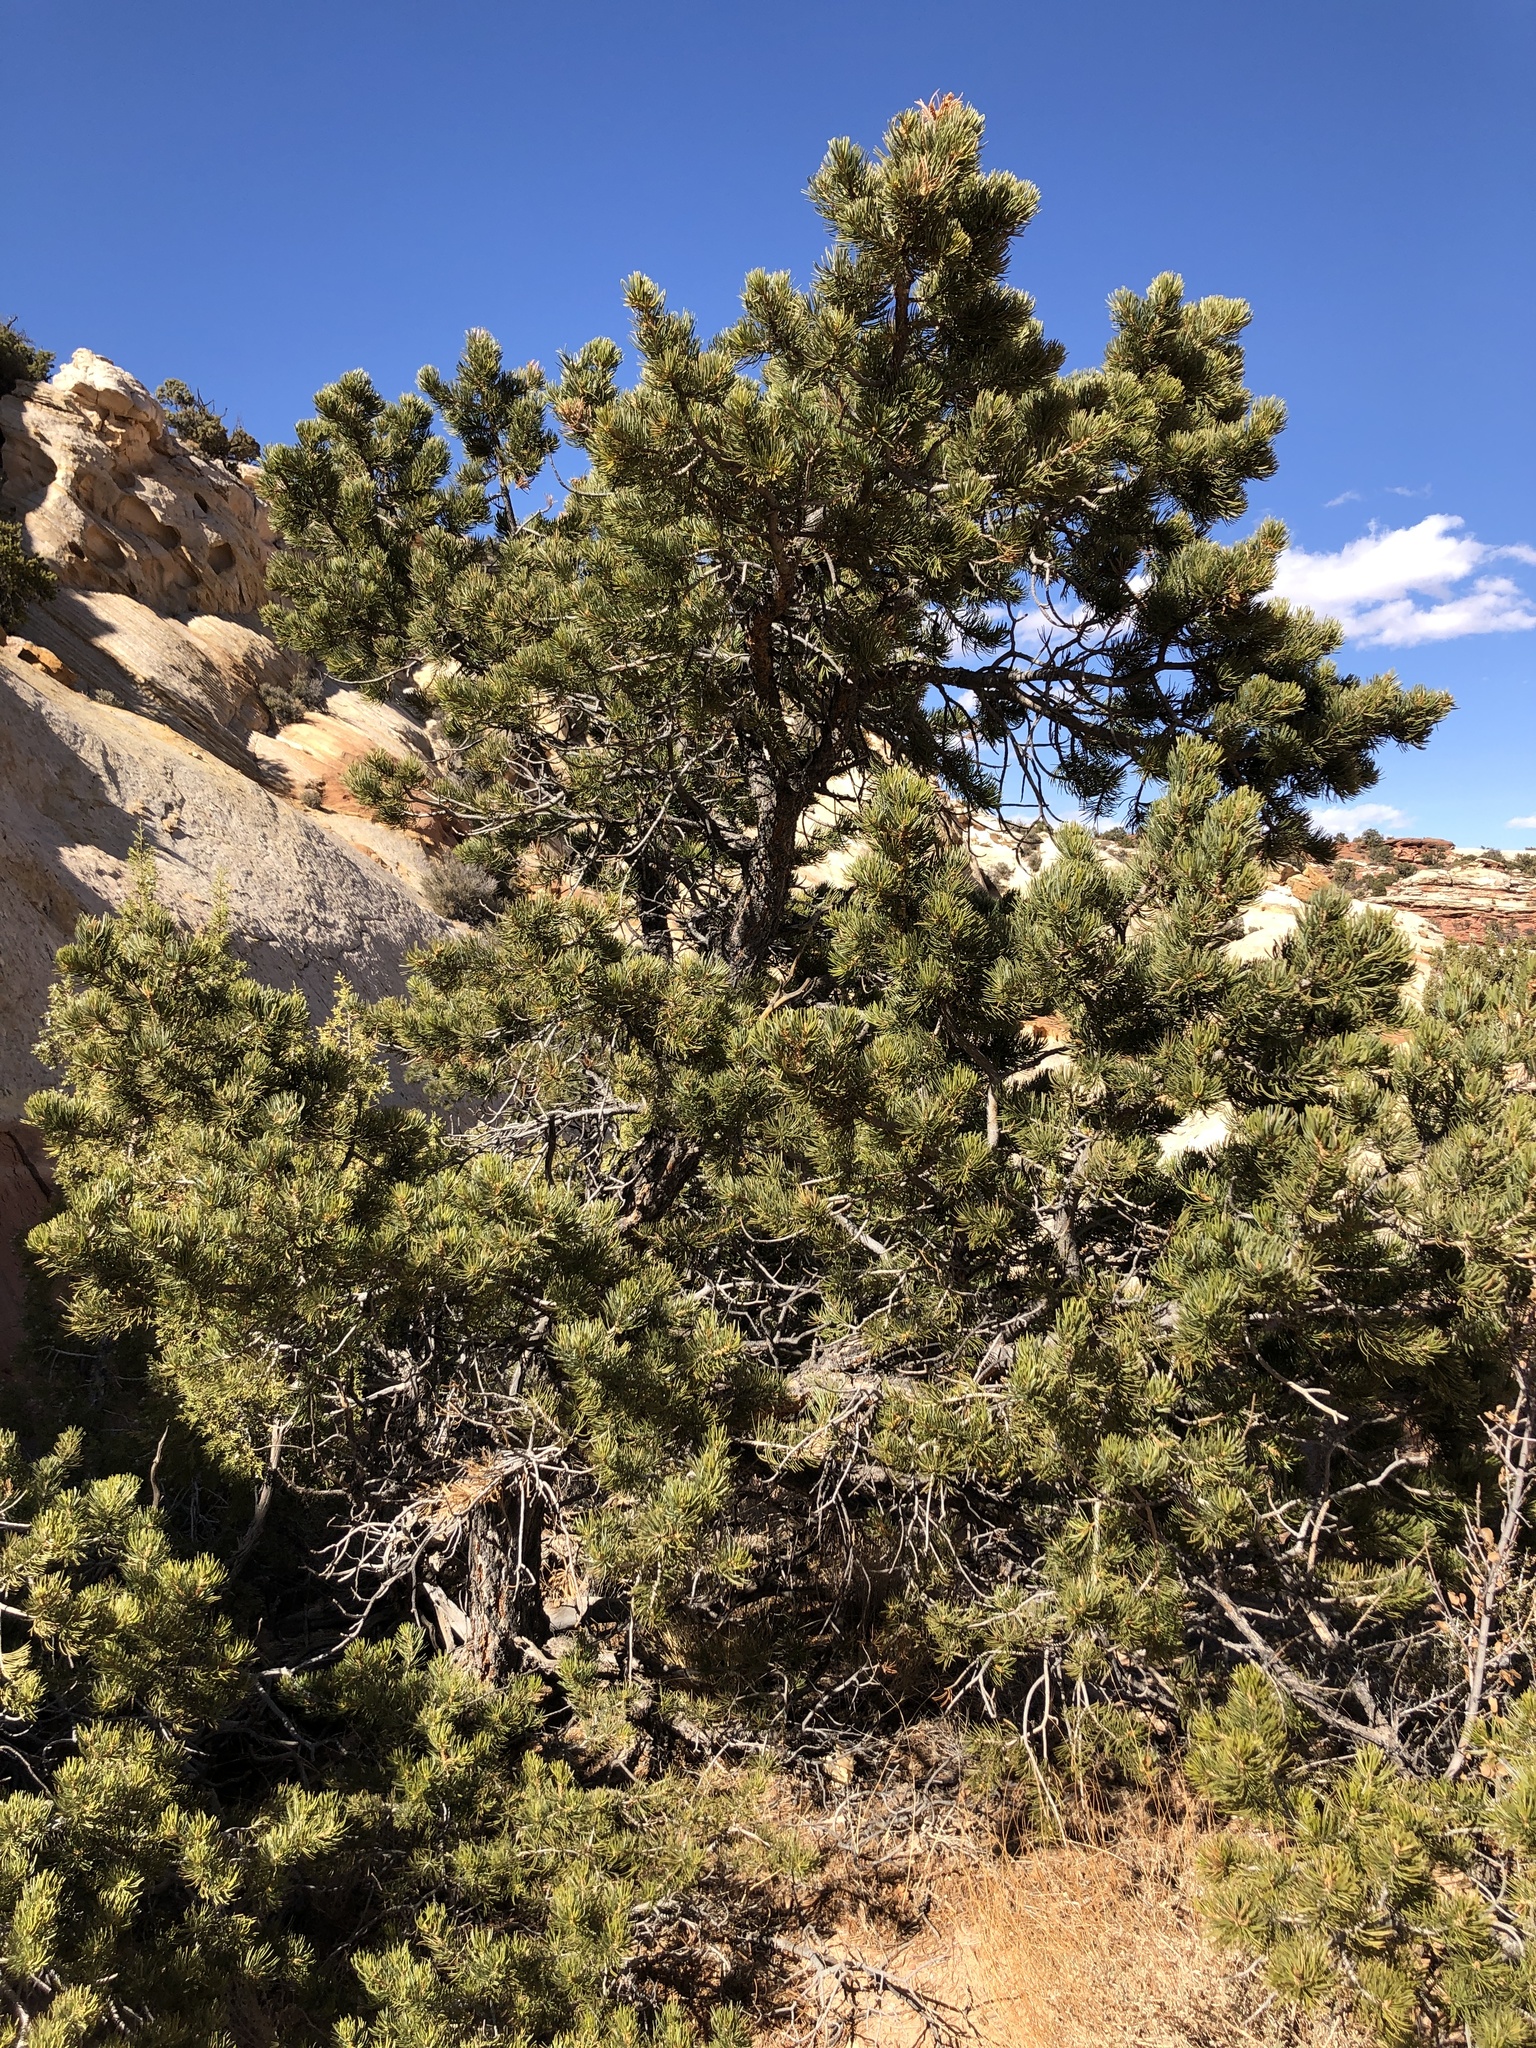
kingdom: Plantae
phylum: Tracheophyta
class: Pinopsida
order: Pinales
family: Pinaceae
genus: Pinus
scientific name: Pinus edulis
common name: Colorado pinyon
